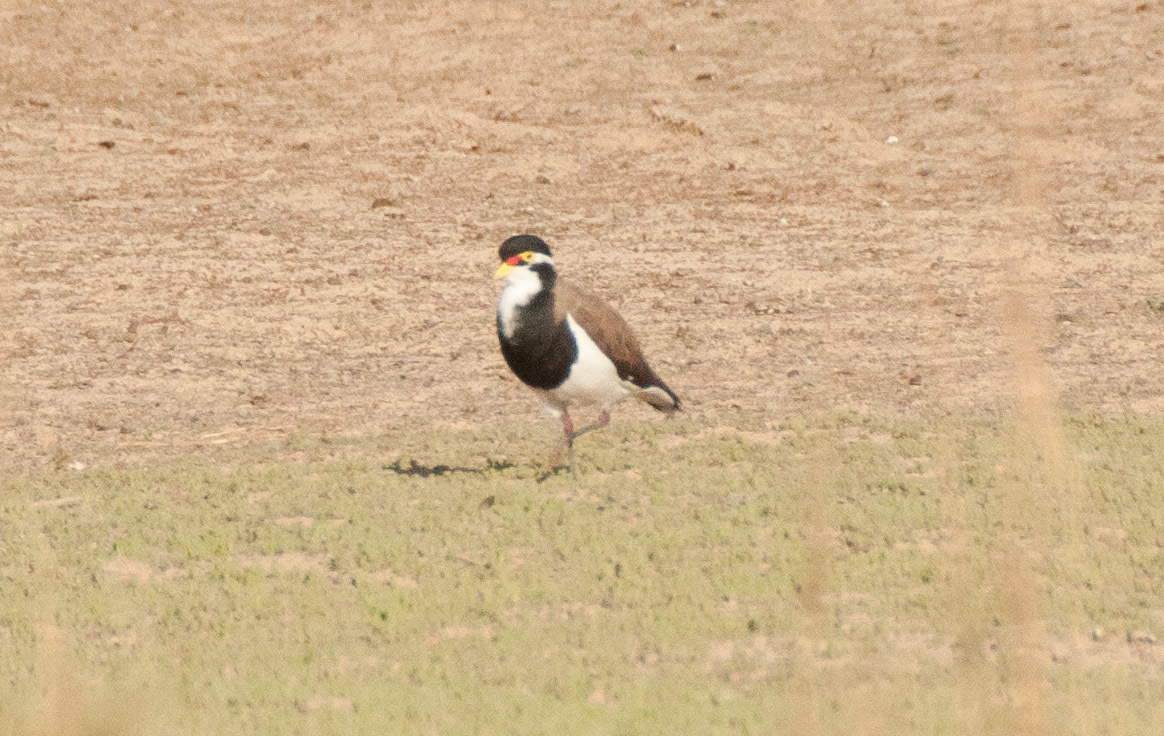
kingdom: Animalia
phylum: Chordata
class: Aves
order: Charadriiformes
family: Charadriidae
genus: Vanellus
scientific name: Vanellus tricolor
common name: Banded lapwing
